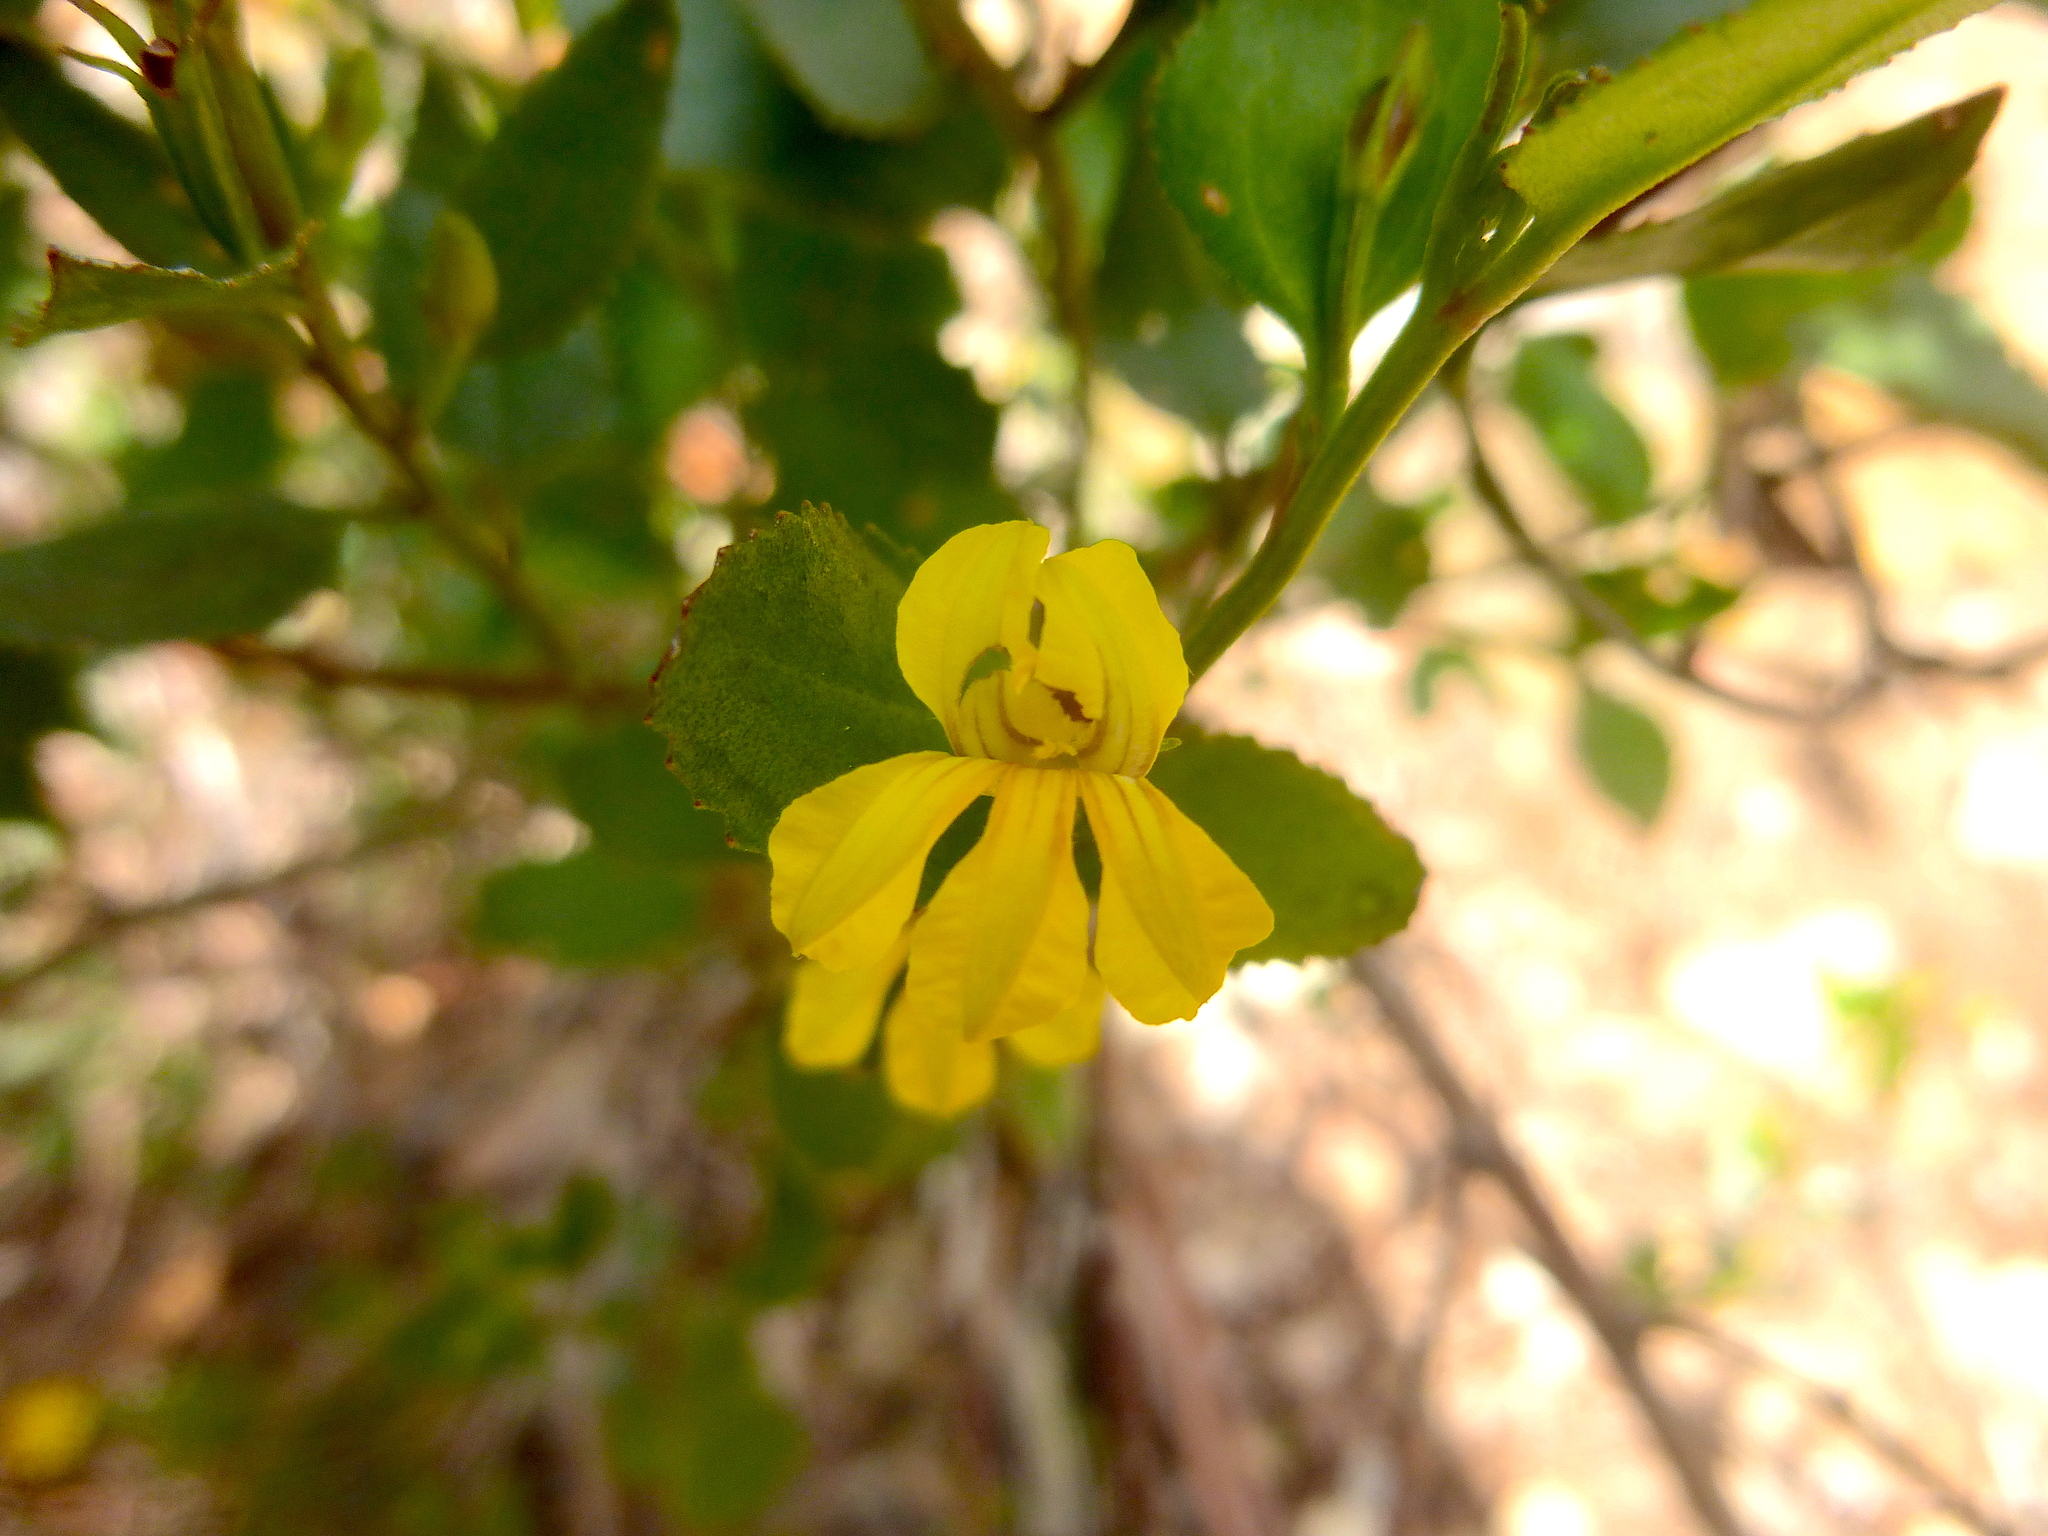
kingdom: Plantae
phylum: Tracheophyta
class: Magnoliopsida
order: Asterales
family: Goodeniaceae
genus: Goodenia
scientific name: Goodenia ovata
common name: Hop goodenia
